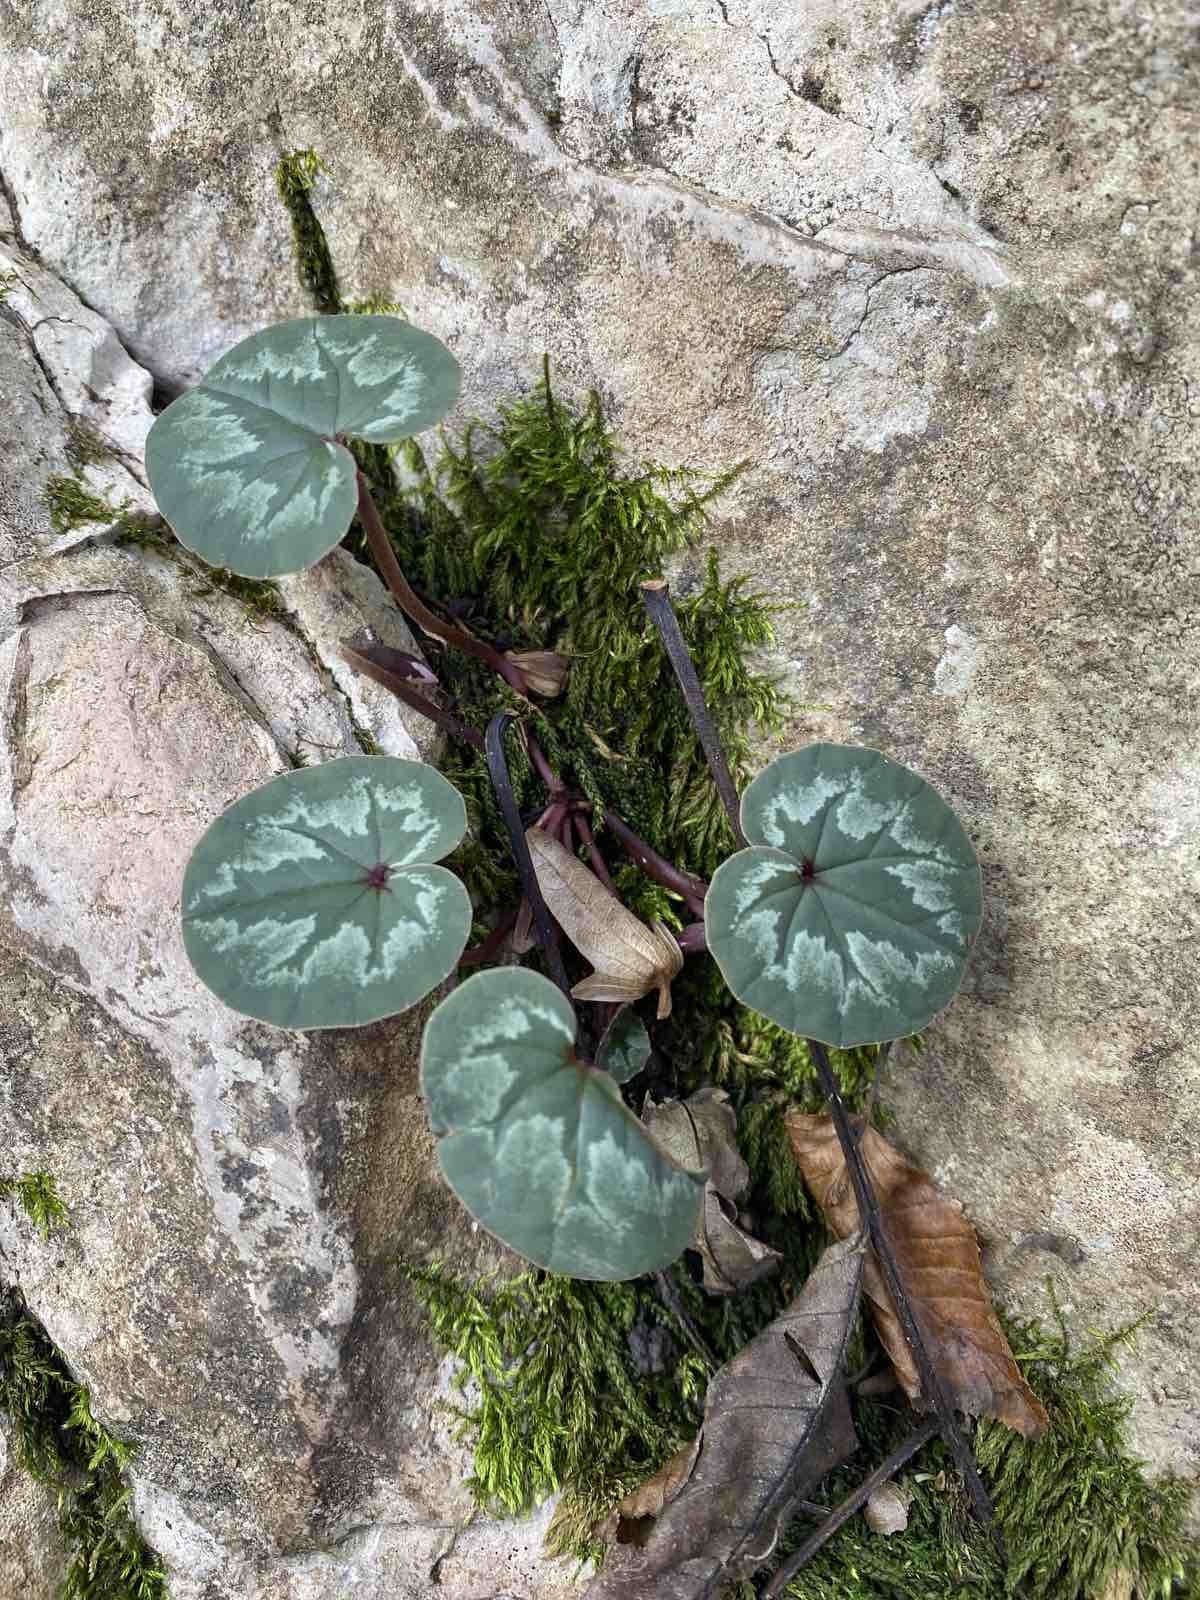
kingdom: Plantae
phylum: Tracheophyta
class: Magnoliopsida
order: Ericales
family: Primulaceae
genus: Cyclamen
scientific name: Cyclamen coum
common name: Eastern sowbread
